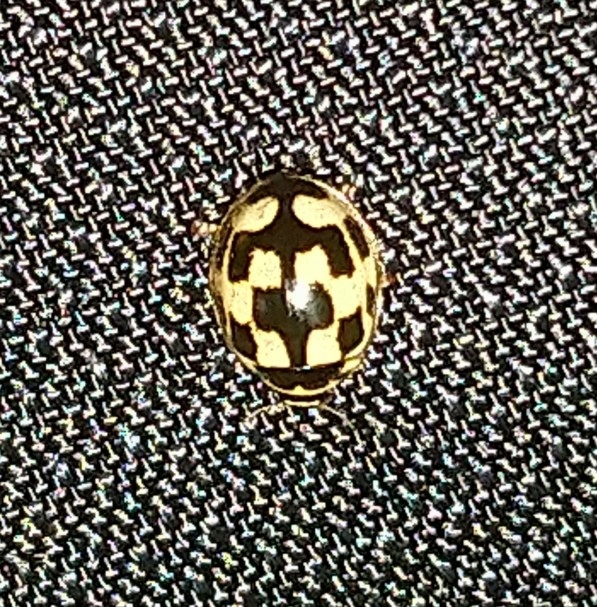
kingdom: Animalia
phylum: Arthropoda
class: Insecta
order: Coleoptera
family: Coccinellidae
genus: Propylaea
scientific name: Propylaea quatuordecimpunctata
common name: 14-spotted ladybird beetle
